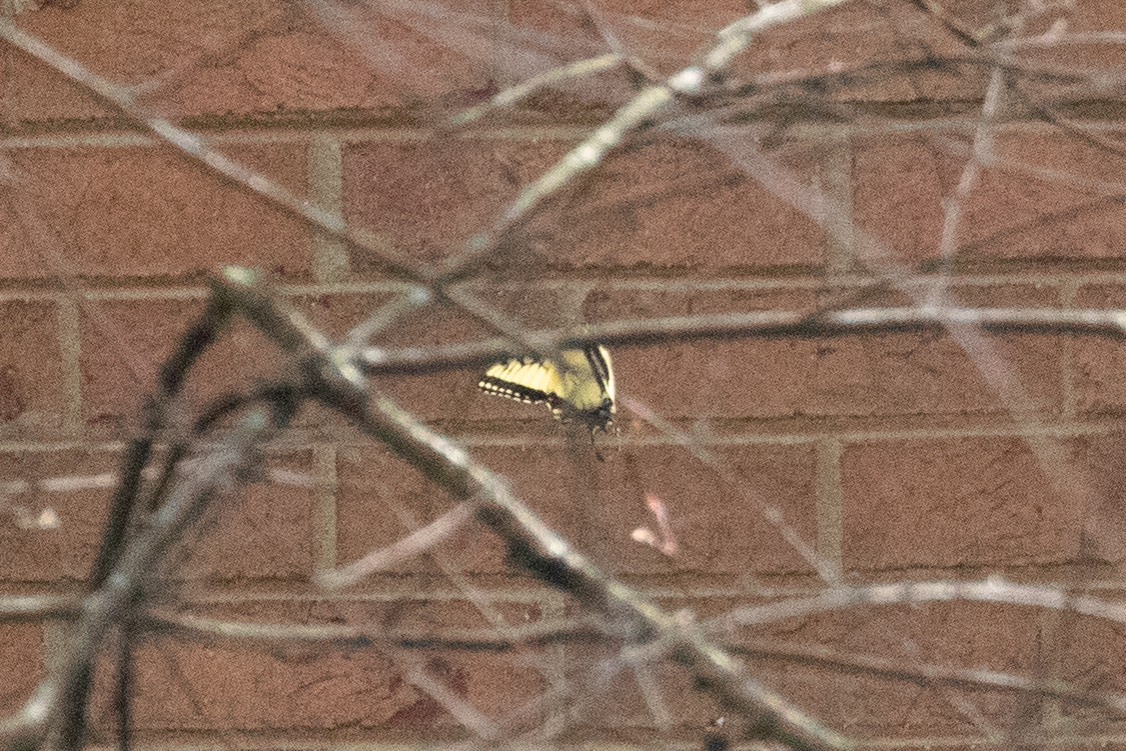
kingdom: Animalia
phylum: Arthropoda
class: Insecta
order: Lepidoptera
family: Papilionidae
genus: Papilio
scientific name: Papilio glaucus
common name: Tiger swallowtail
